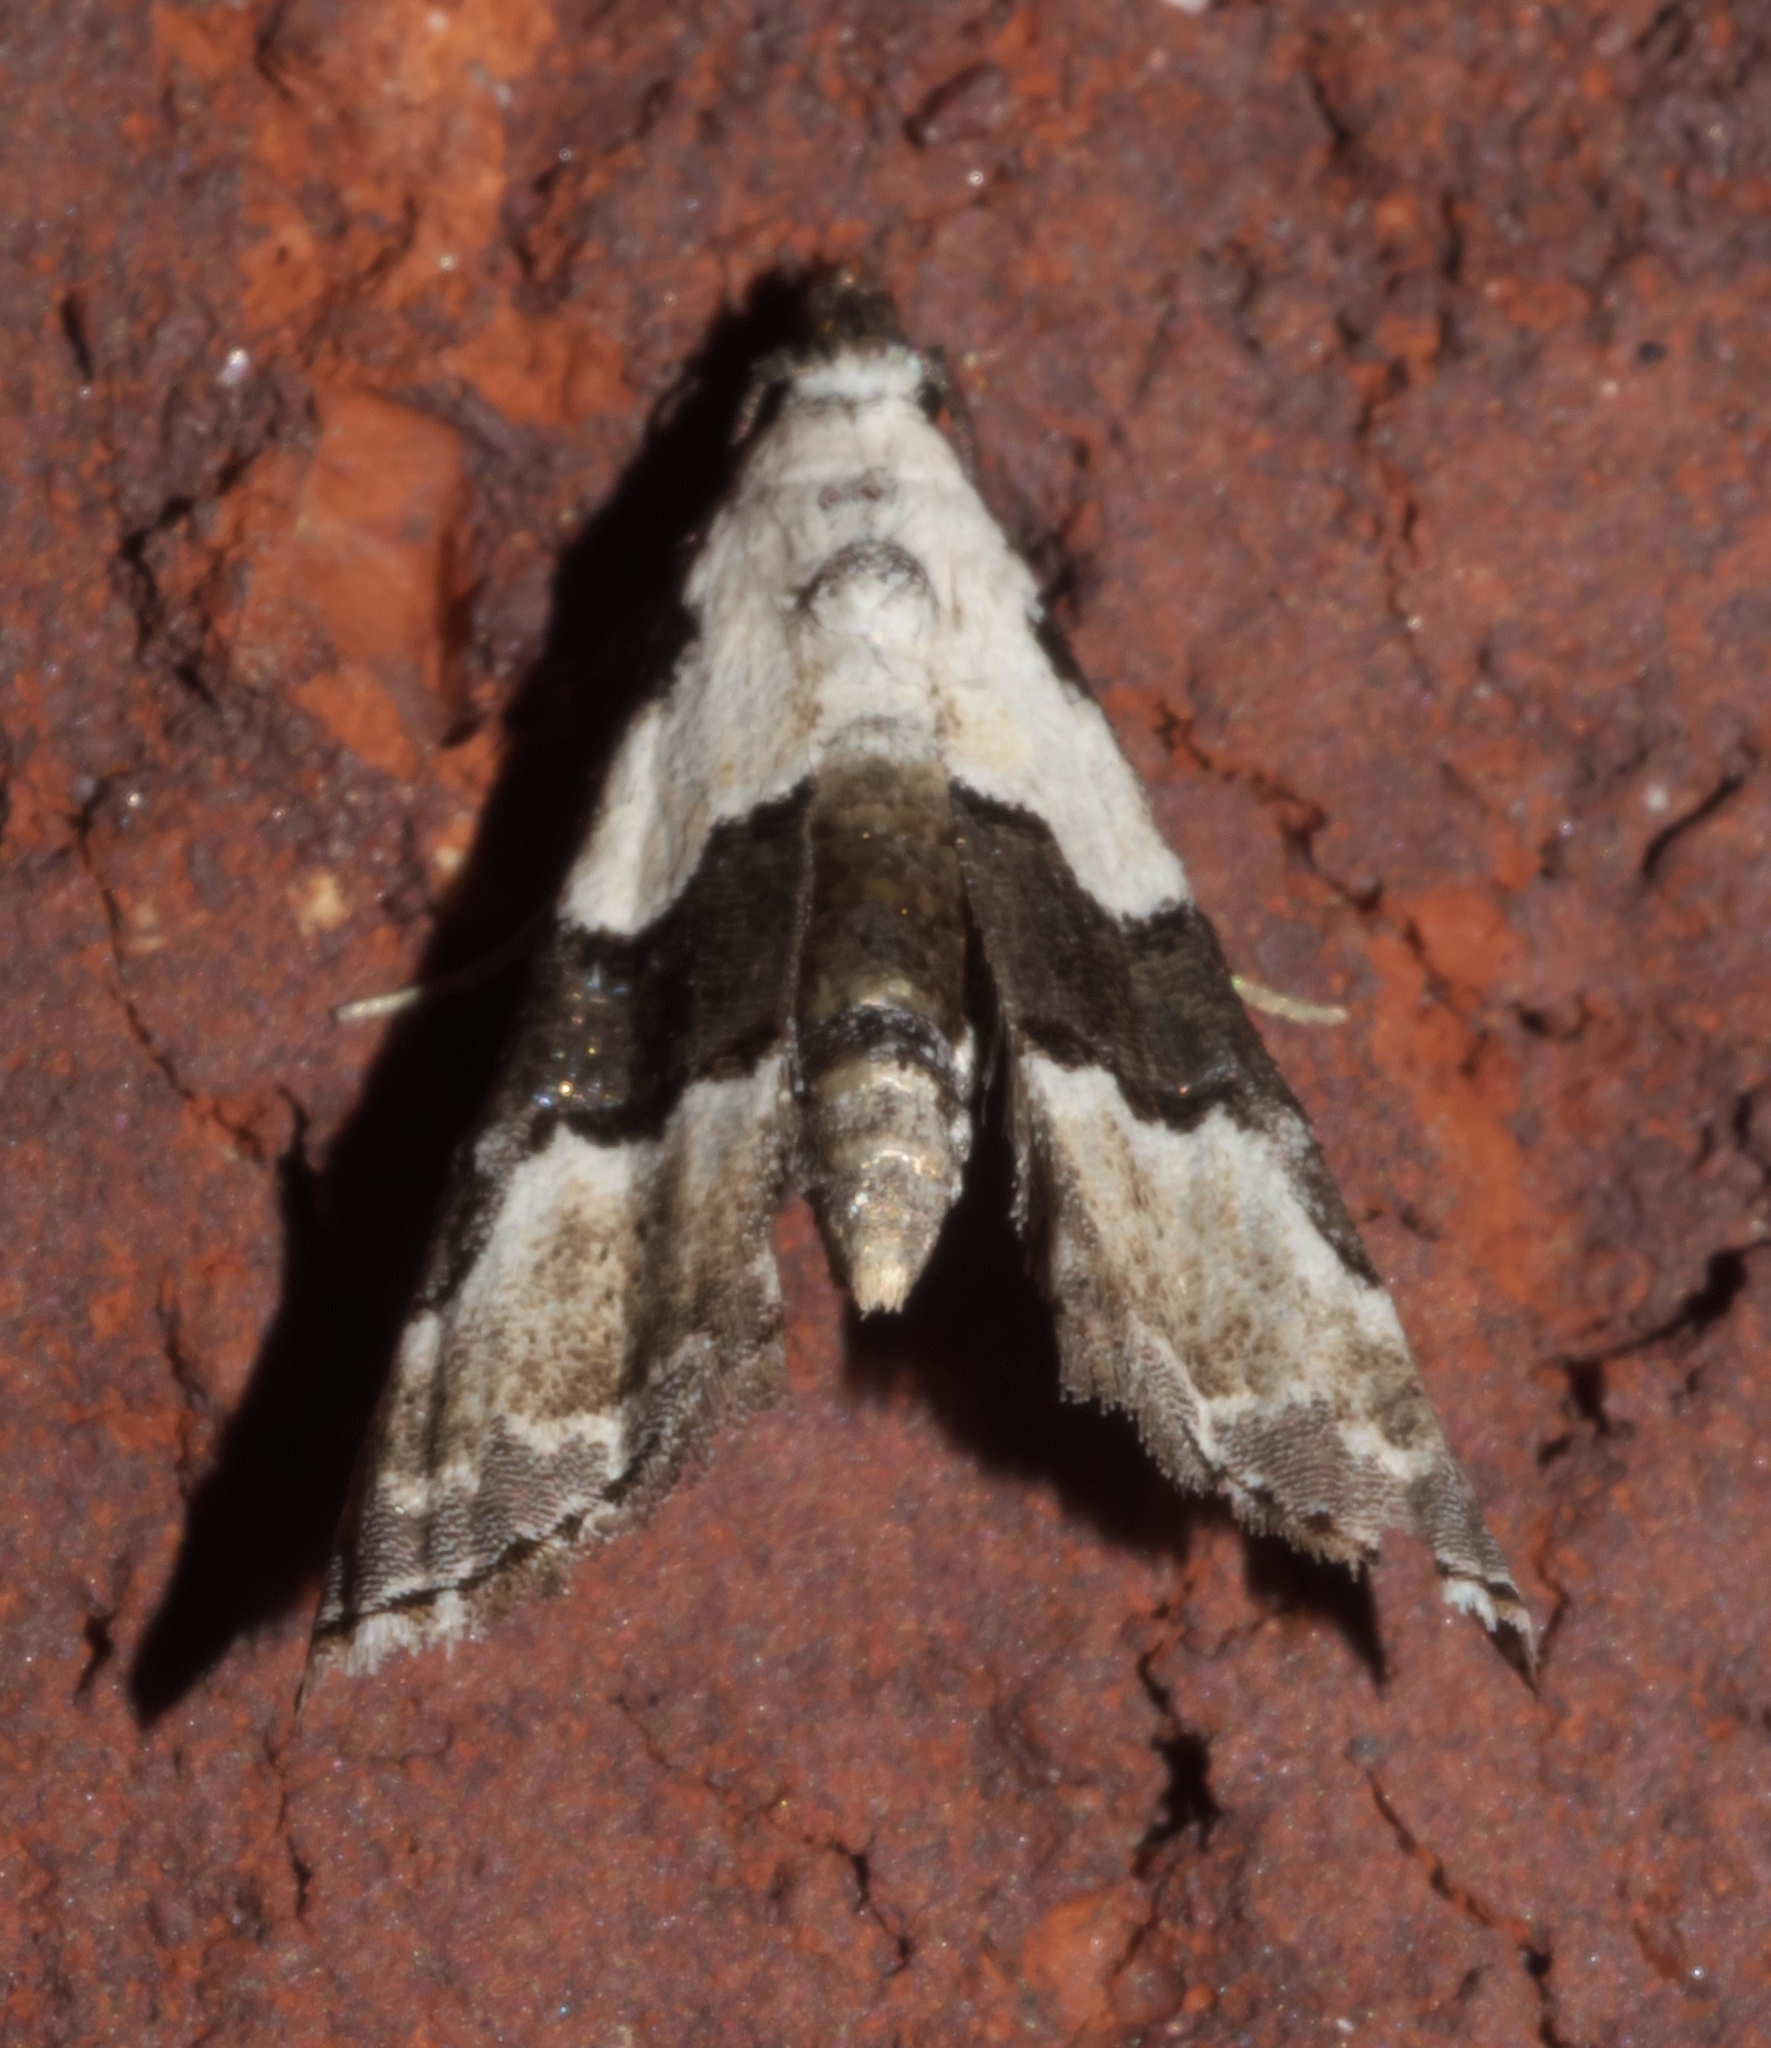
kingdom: Animalia
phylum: Arthropoda
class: Insecta
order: Lepidoptera
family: Noctuidae
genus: Nigetia
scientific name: Nigetia formosalis
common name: Thin-winged owlet
